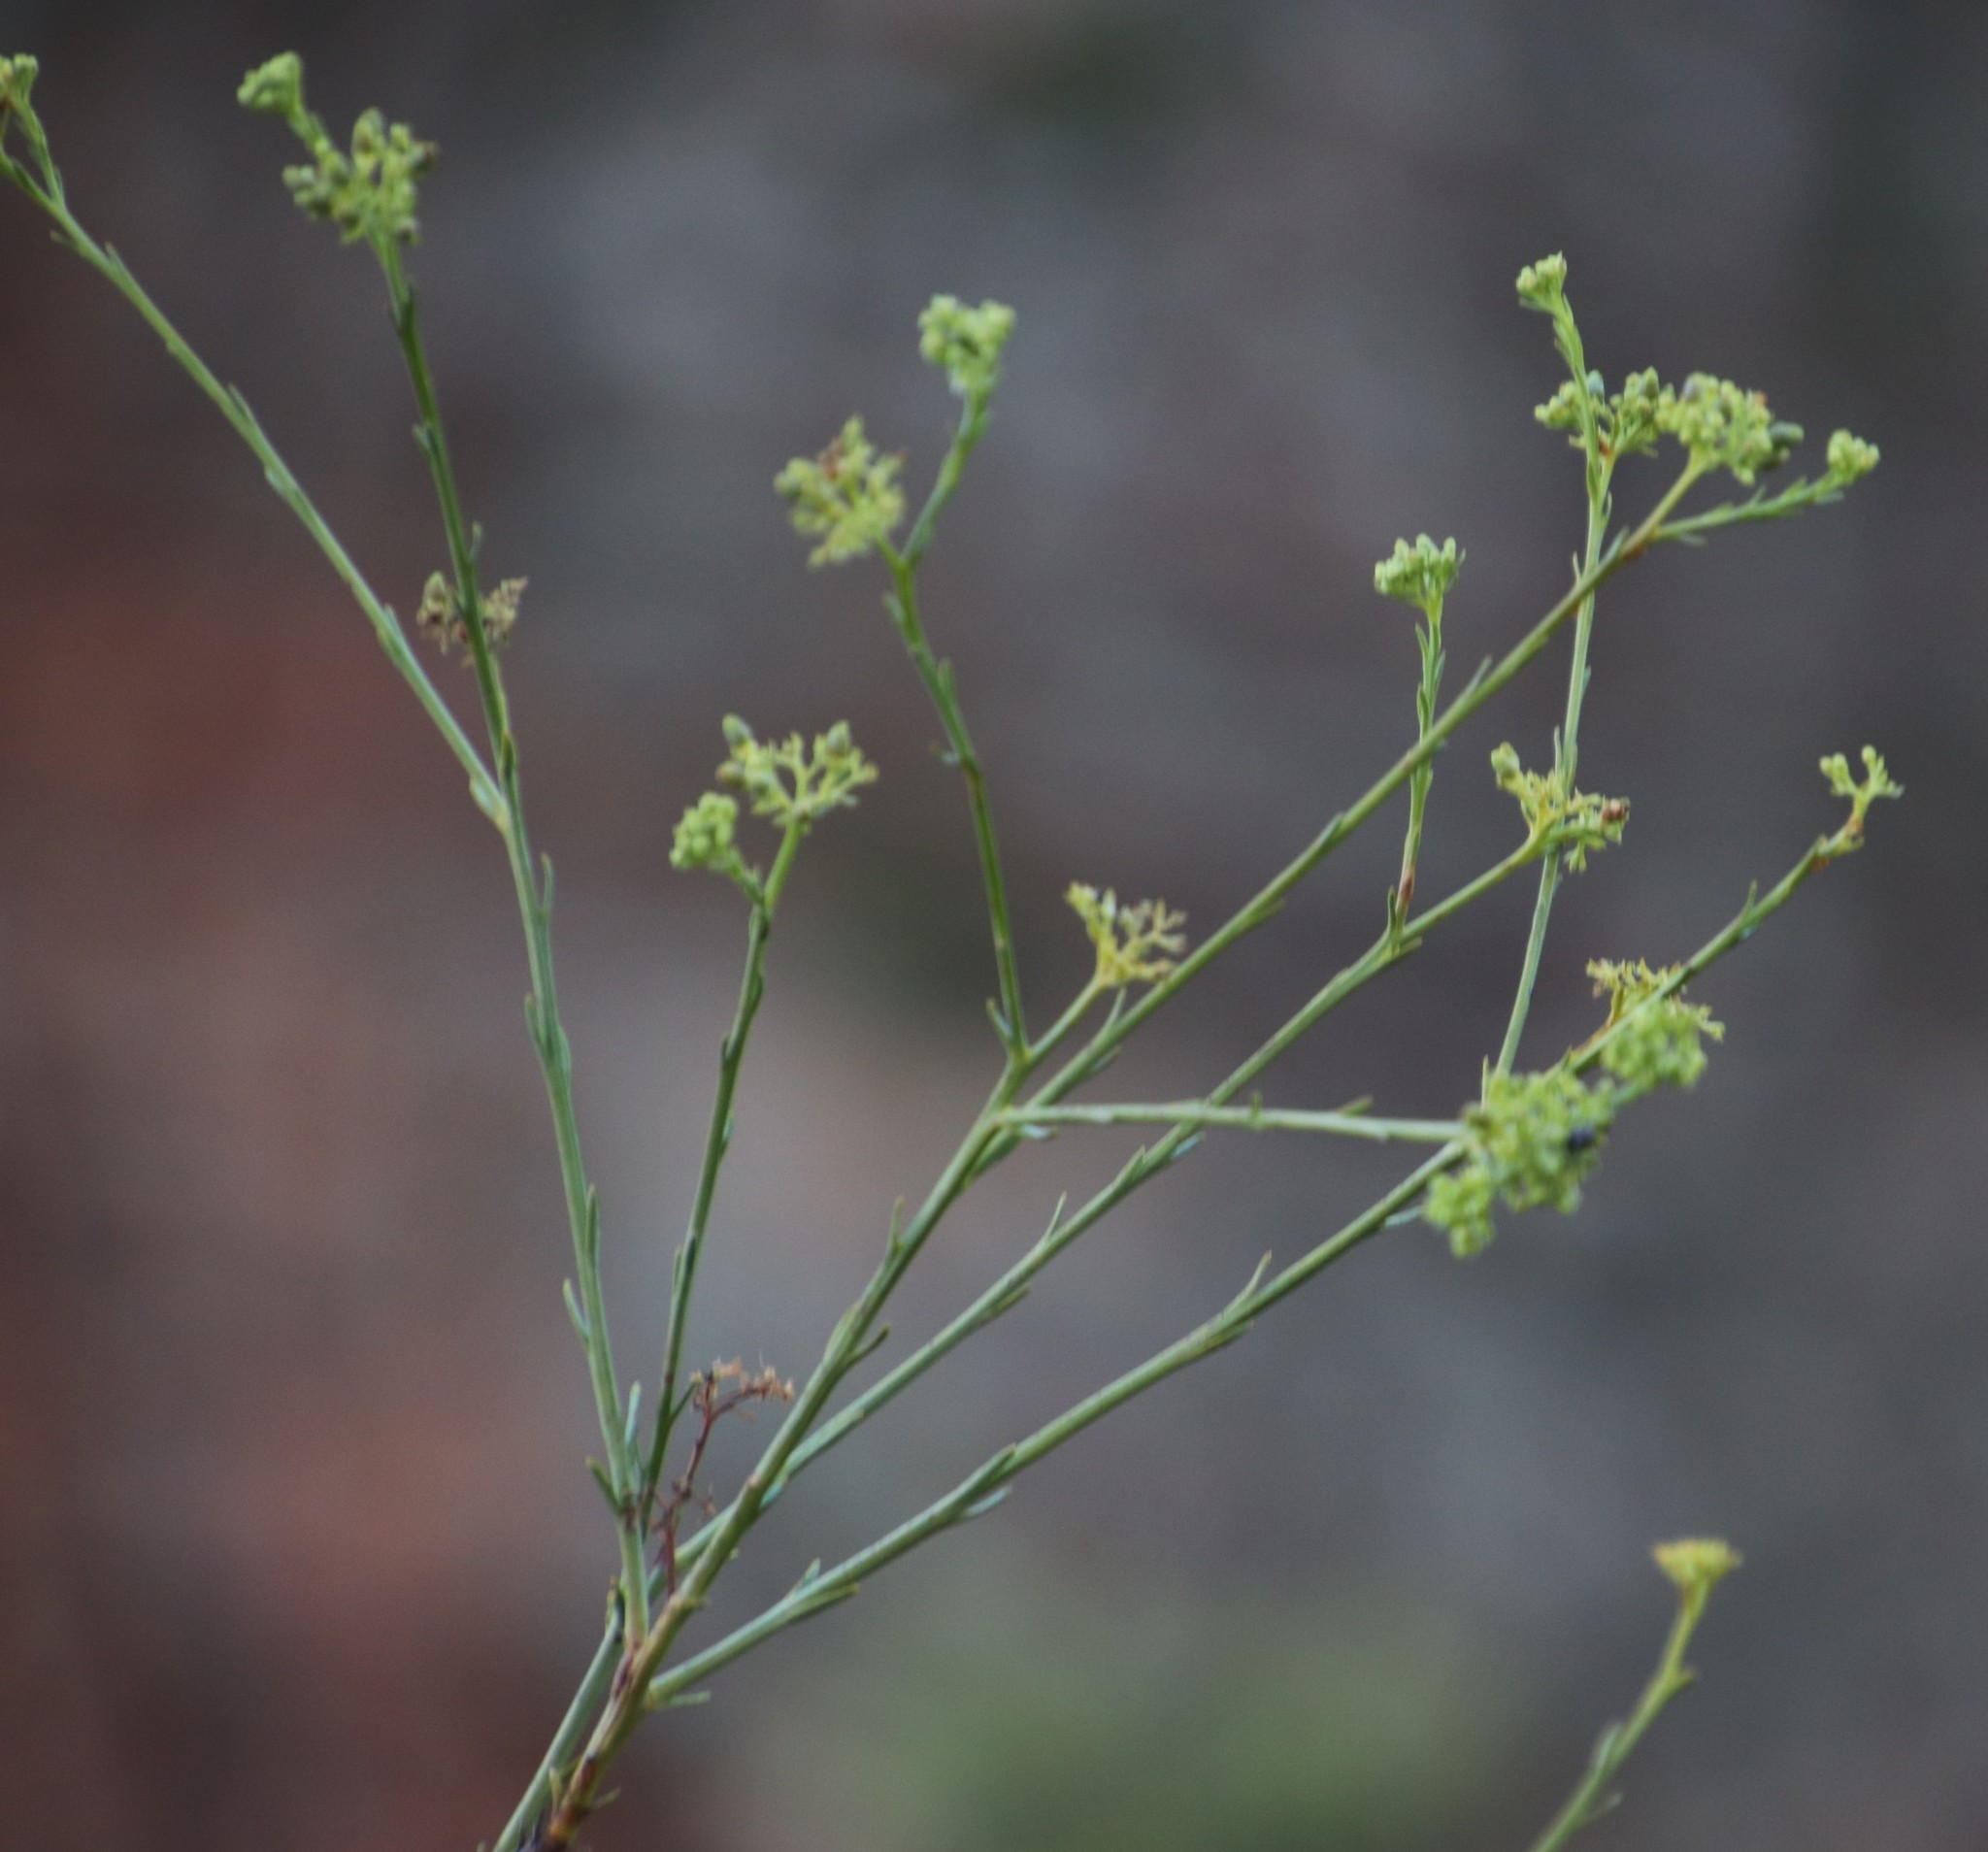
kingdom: Plantae
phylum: Tracheophyta
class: Magnoliopsida
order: Santalales
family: Thesiaceae
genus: Thesium
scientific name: Thesium strictum
